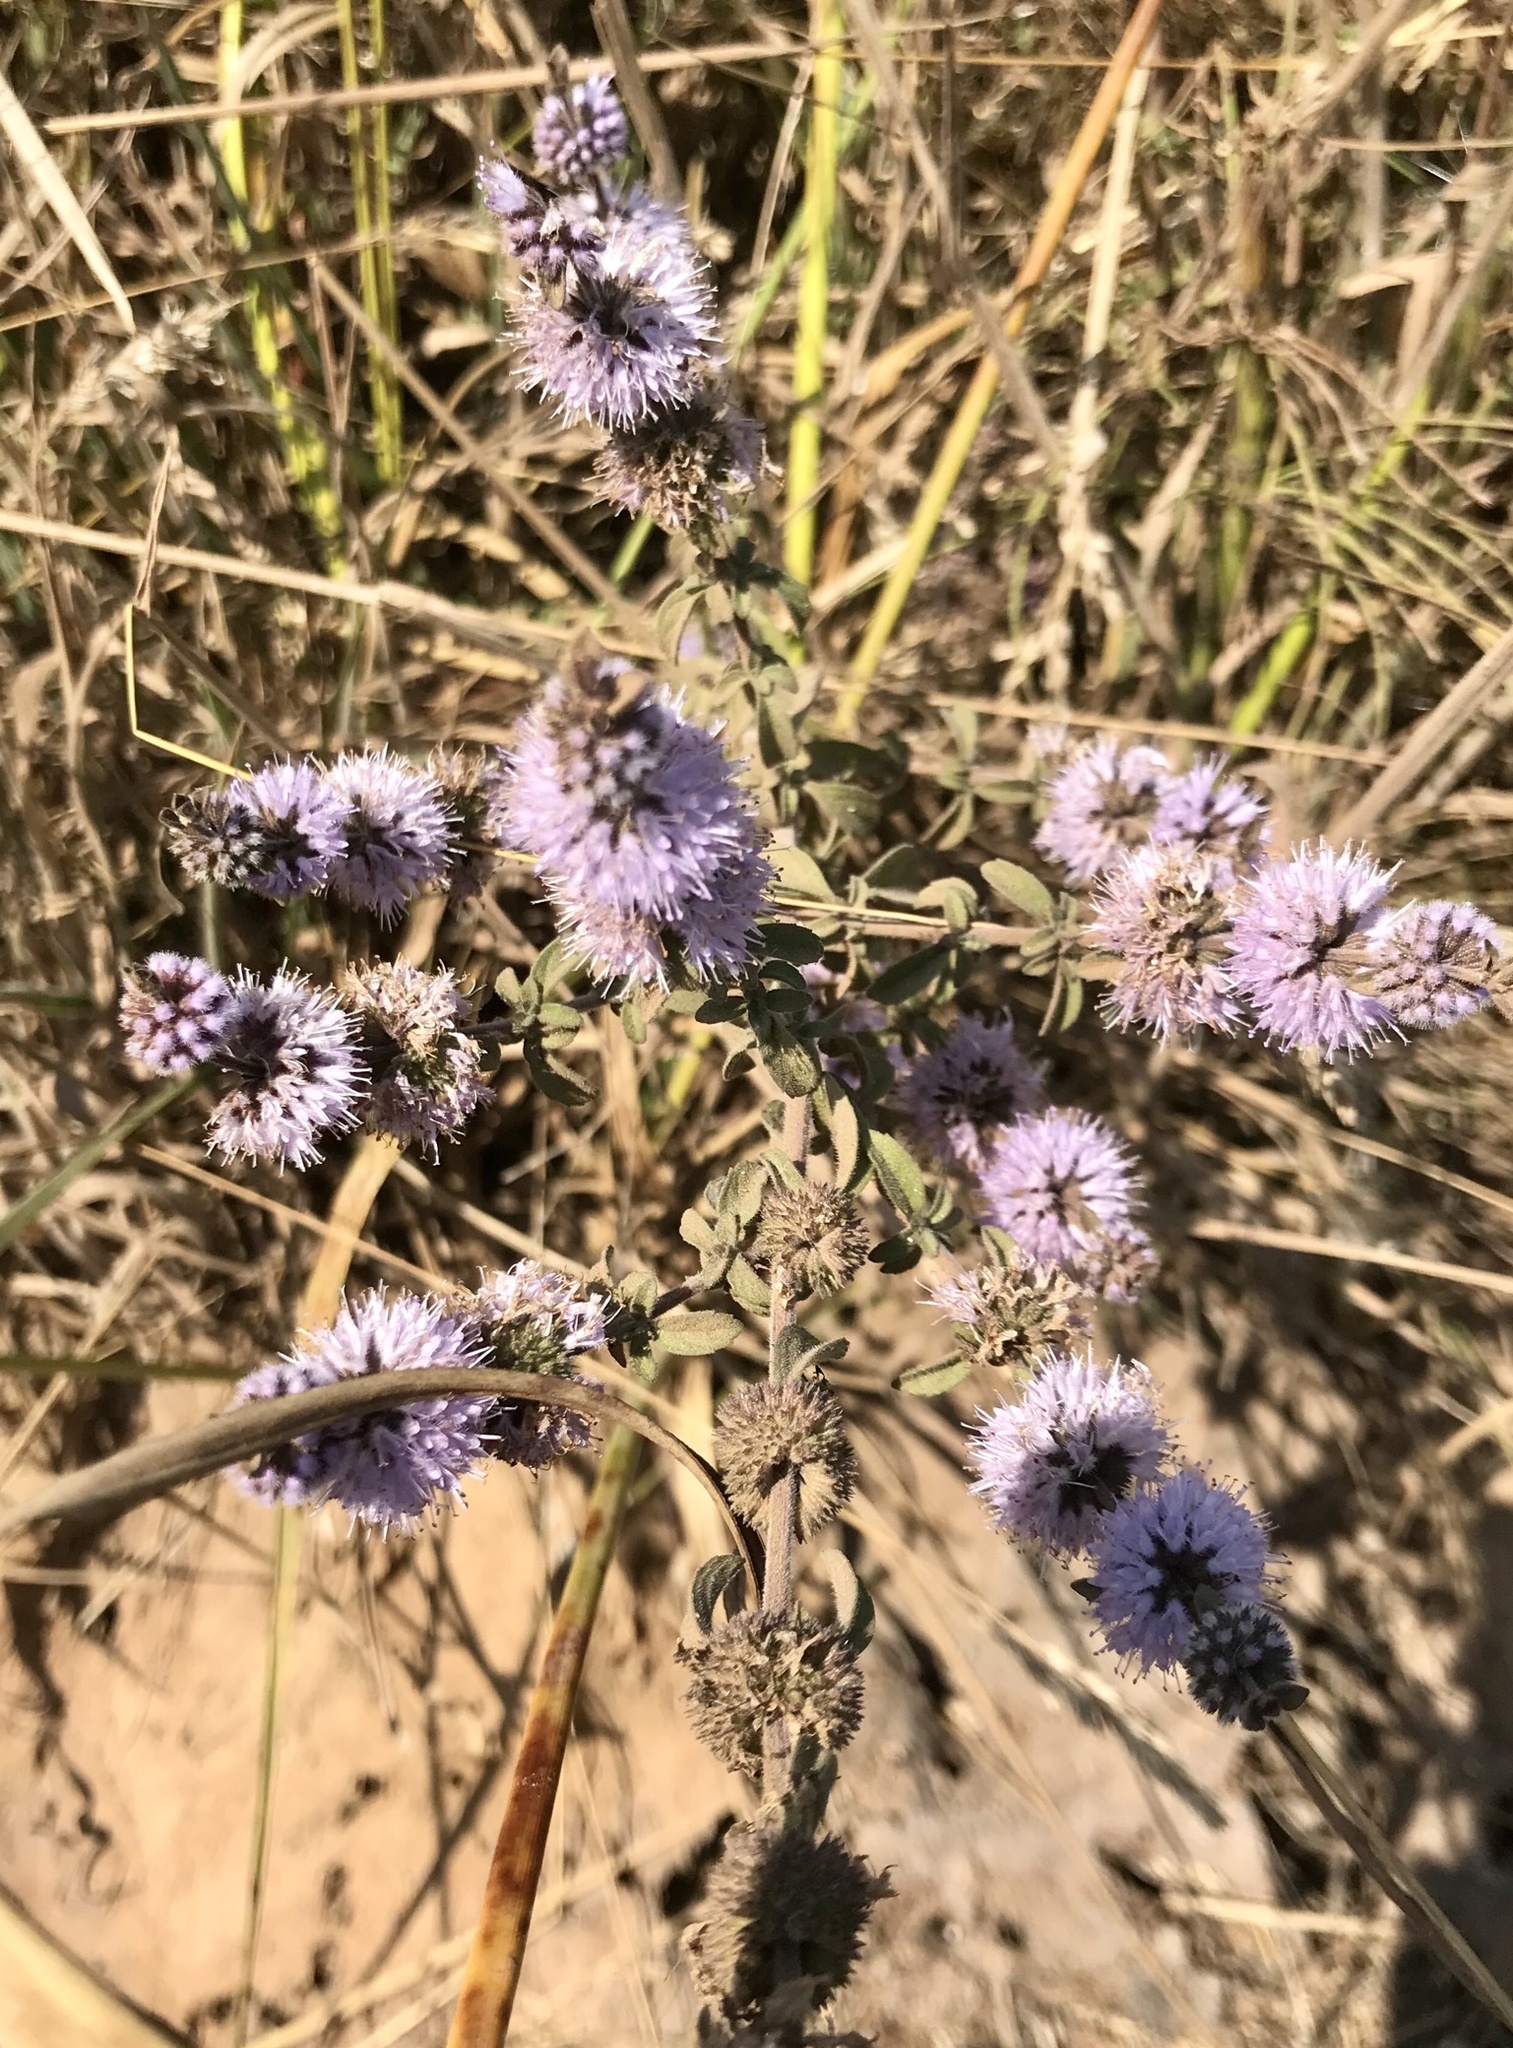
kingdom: Plantae
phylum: Tracheophyta
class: Magnoliopsida
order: Lamiales
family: Lamiaceae
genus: Mentha
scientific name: Mentha pulegium
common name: Pennyroyal
